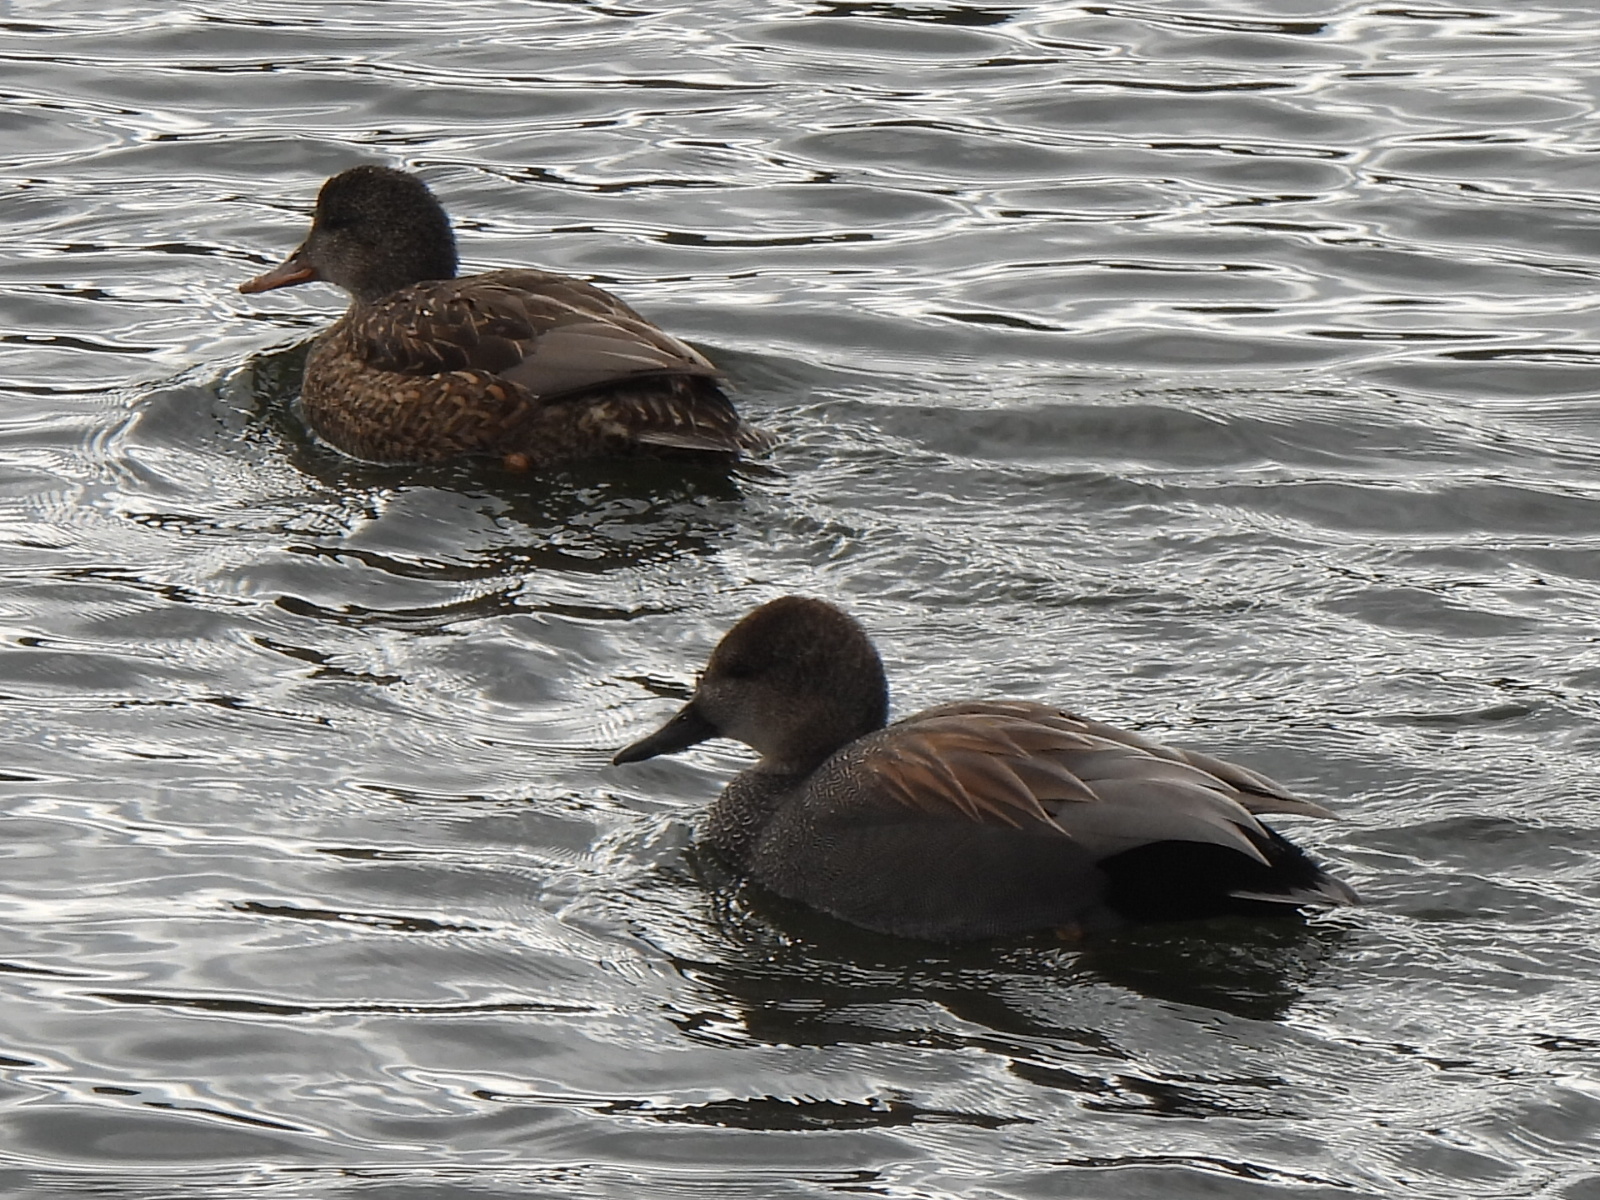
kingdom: Animalia
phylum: Chordata
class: Aves
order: Anseriformes
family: Anatidae
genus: Mareca
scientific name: Mareca strepera
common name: Gadwall
